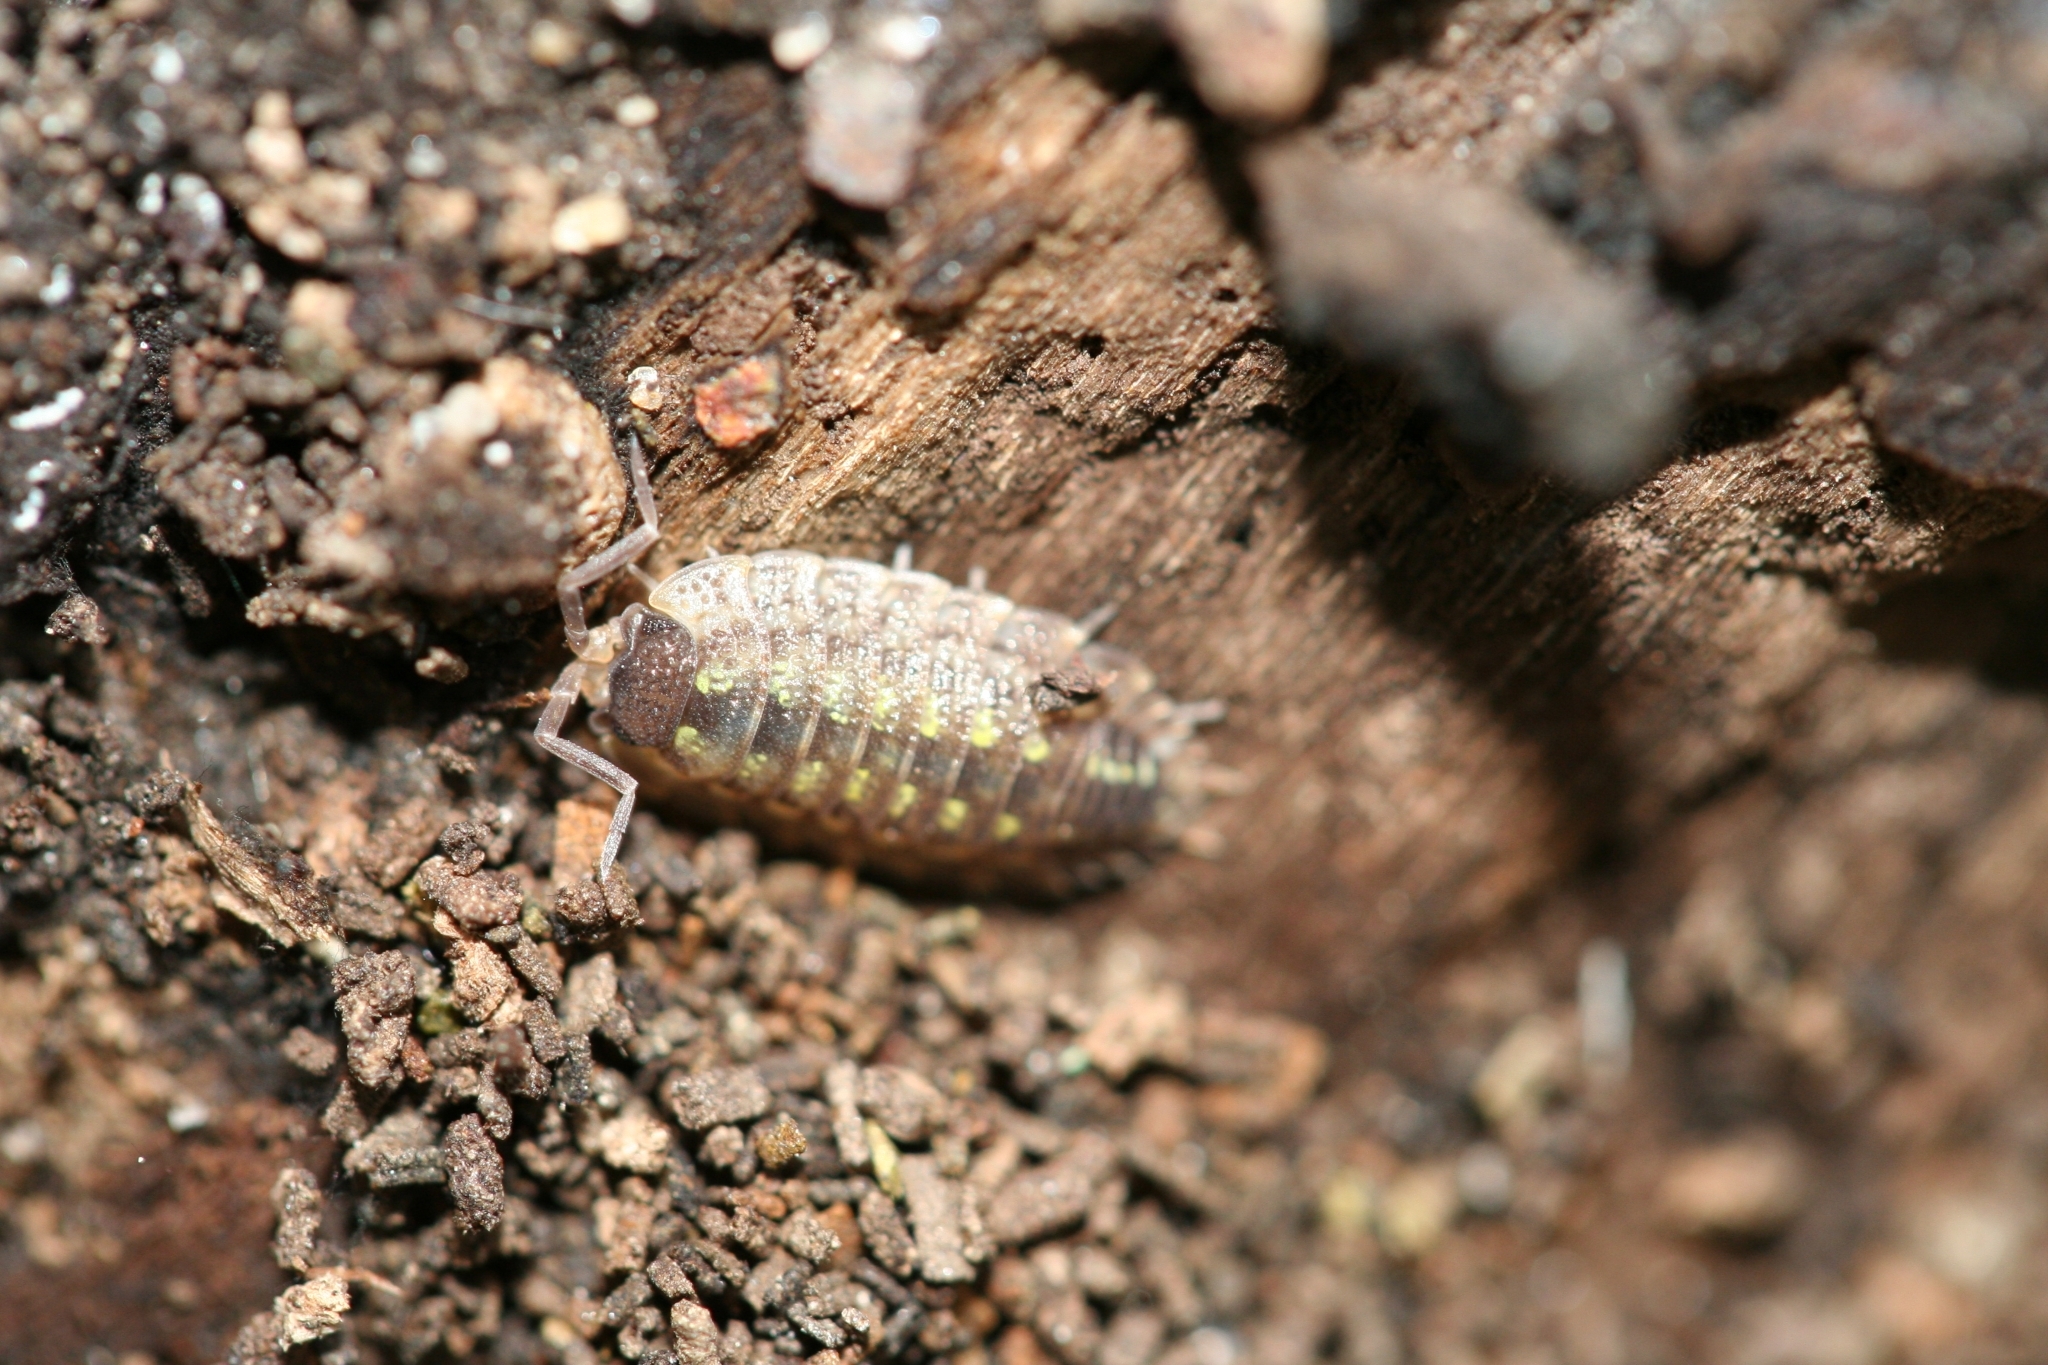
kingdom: Animalia
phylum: Arthropoda
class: Malacostraca
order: Isopoda
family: Porcellionidae
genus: Porcellio
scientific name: Porcellio spinicornis
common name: Painted woodlouse
